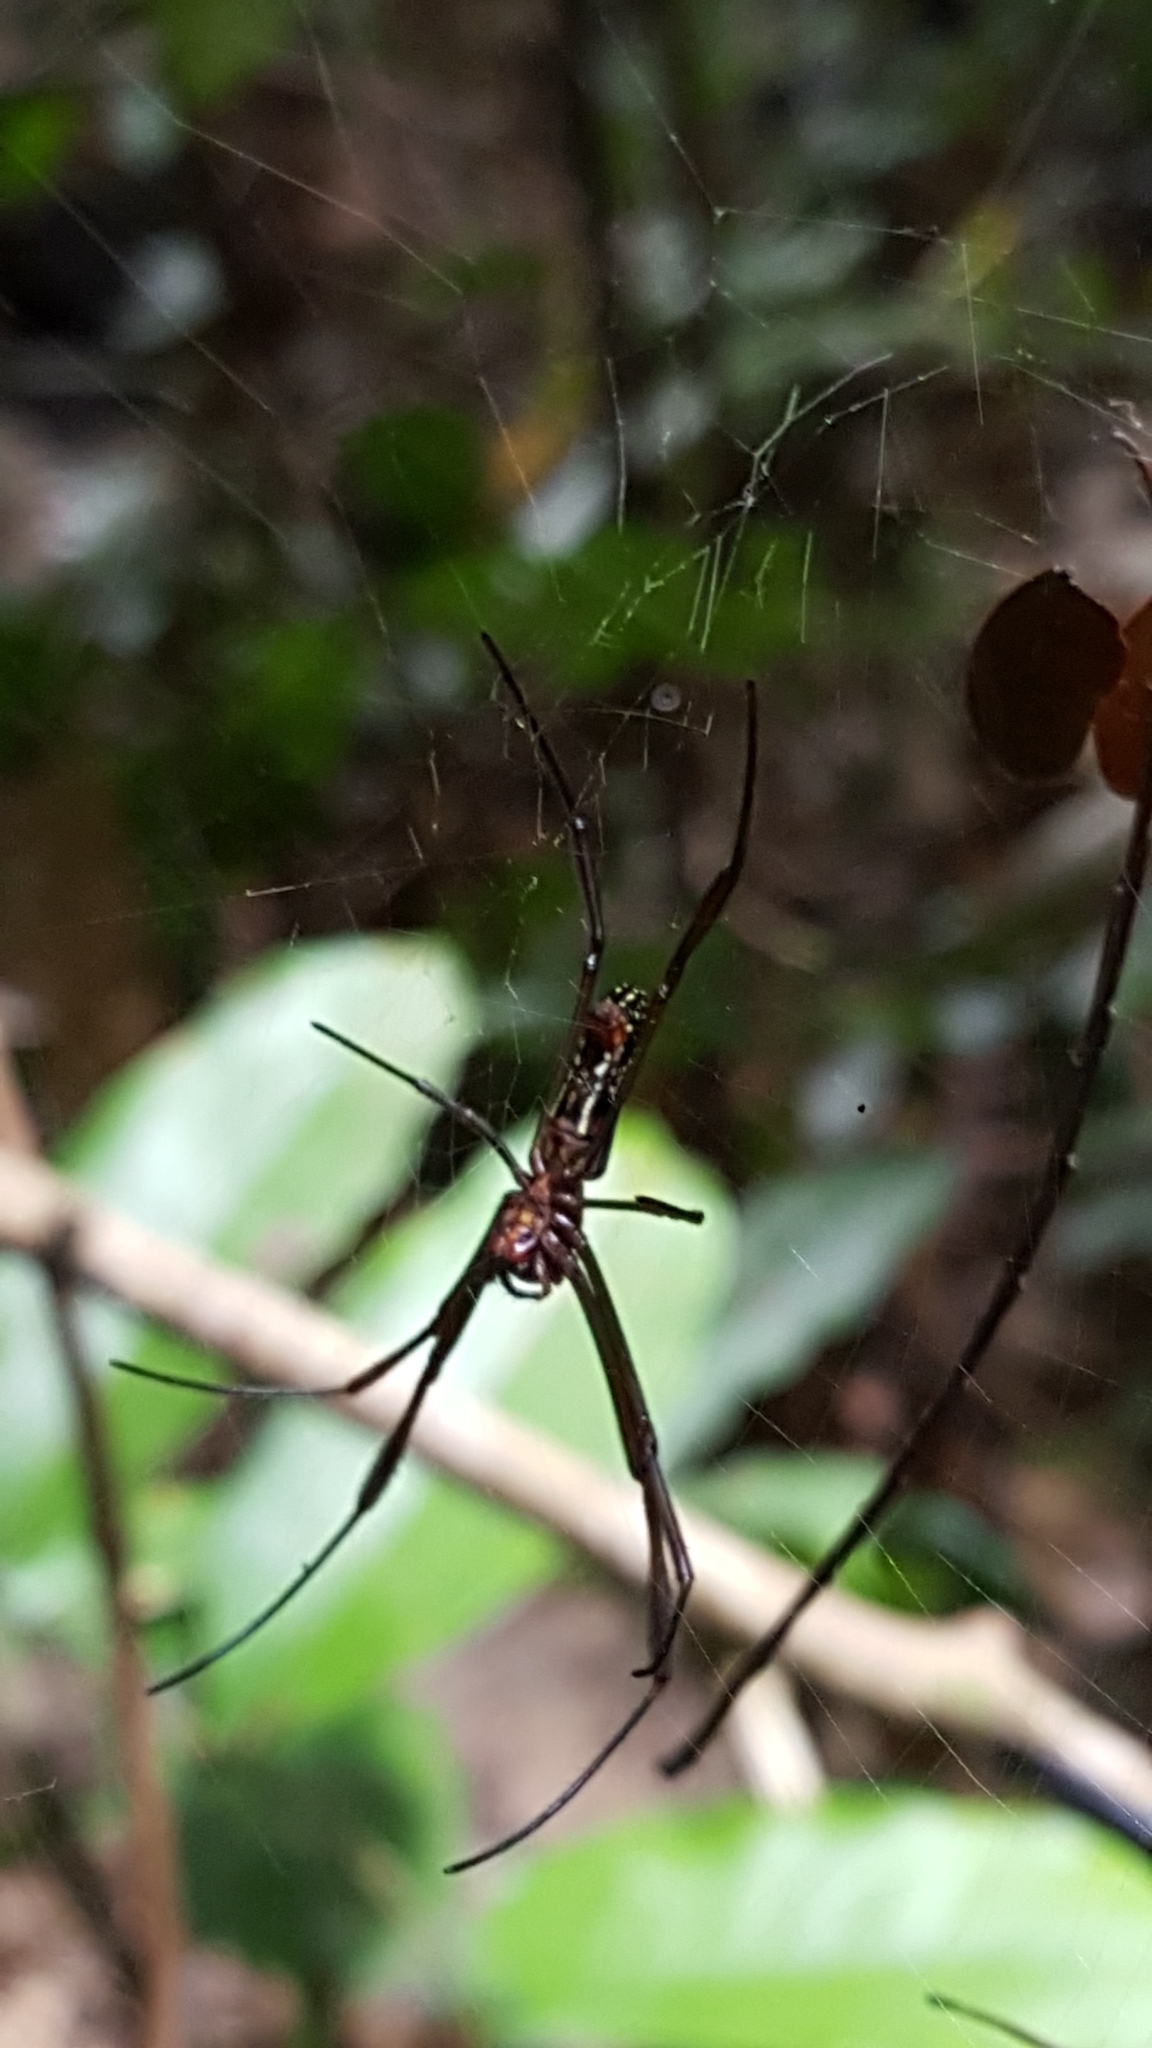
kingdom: Animalia
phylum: Arthropoda
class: Arachnida
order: Araneae
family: Araneidae
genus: Trichonephila
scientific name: Trichonephila clavipes
